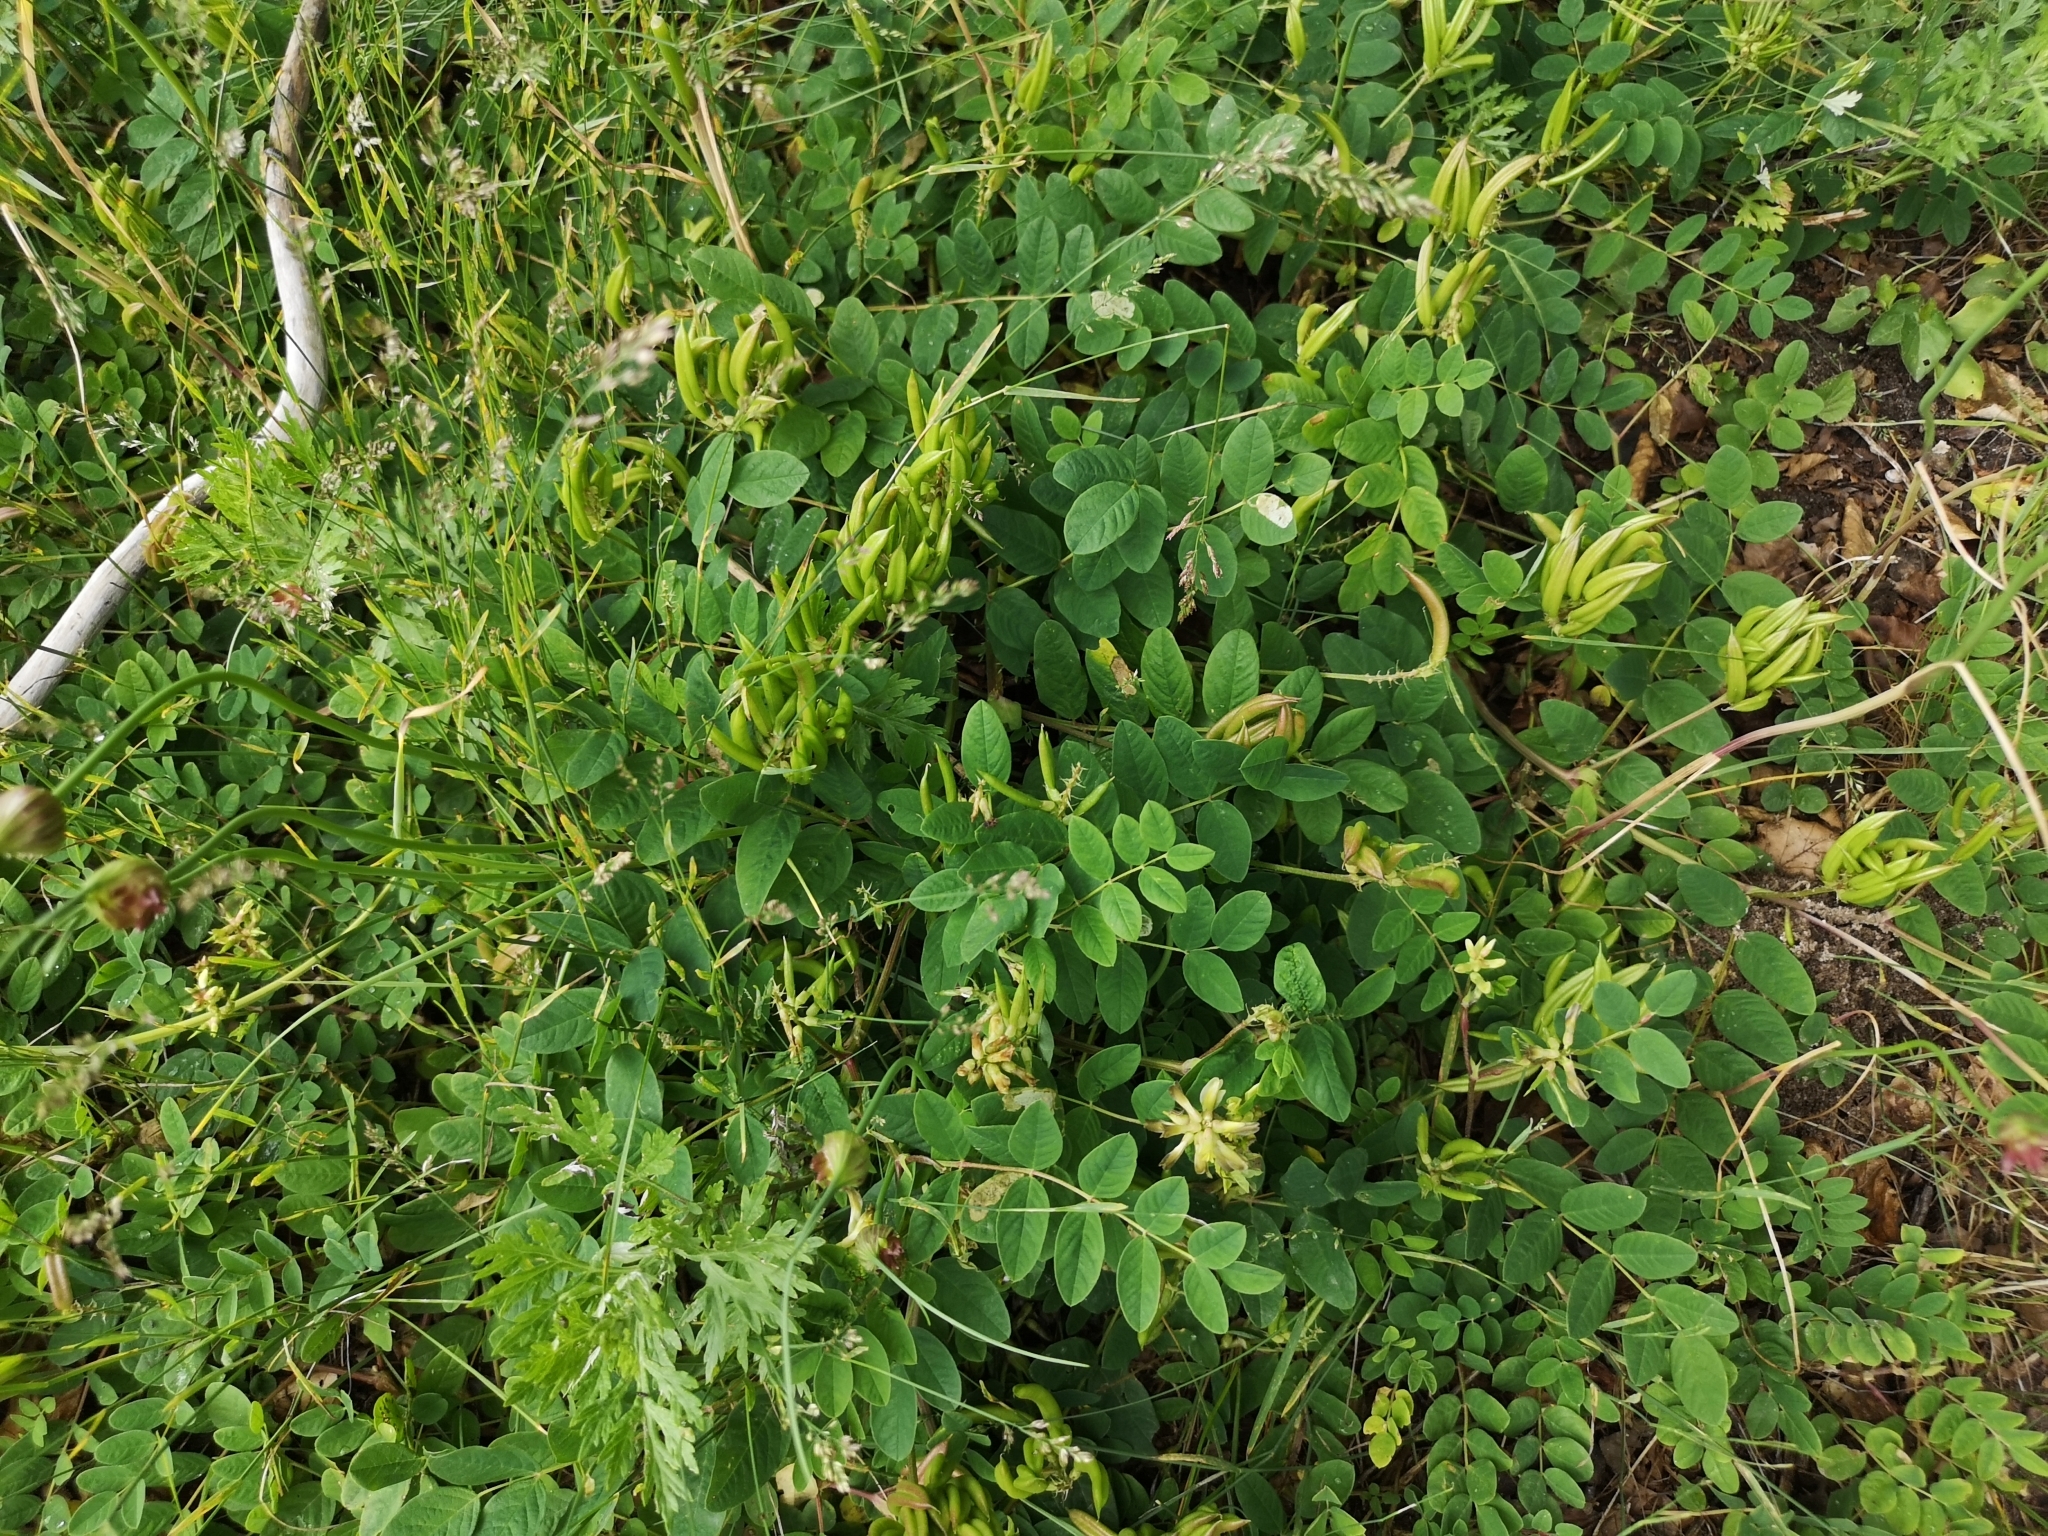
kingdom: Plantae
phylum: Tracheophyta
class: Magnoliopsida
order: Fabales
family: Fabaceae
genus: Astragalus
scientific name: Astragalus glycyphyllos
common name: Wild liquorice
